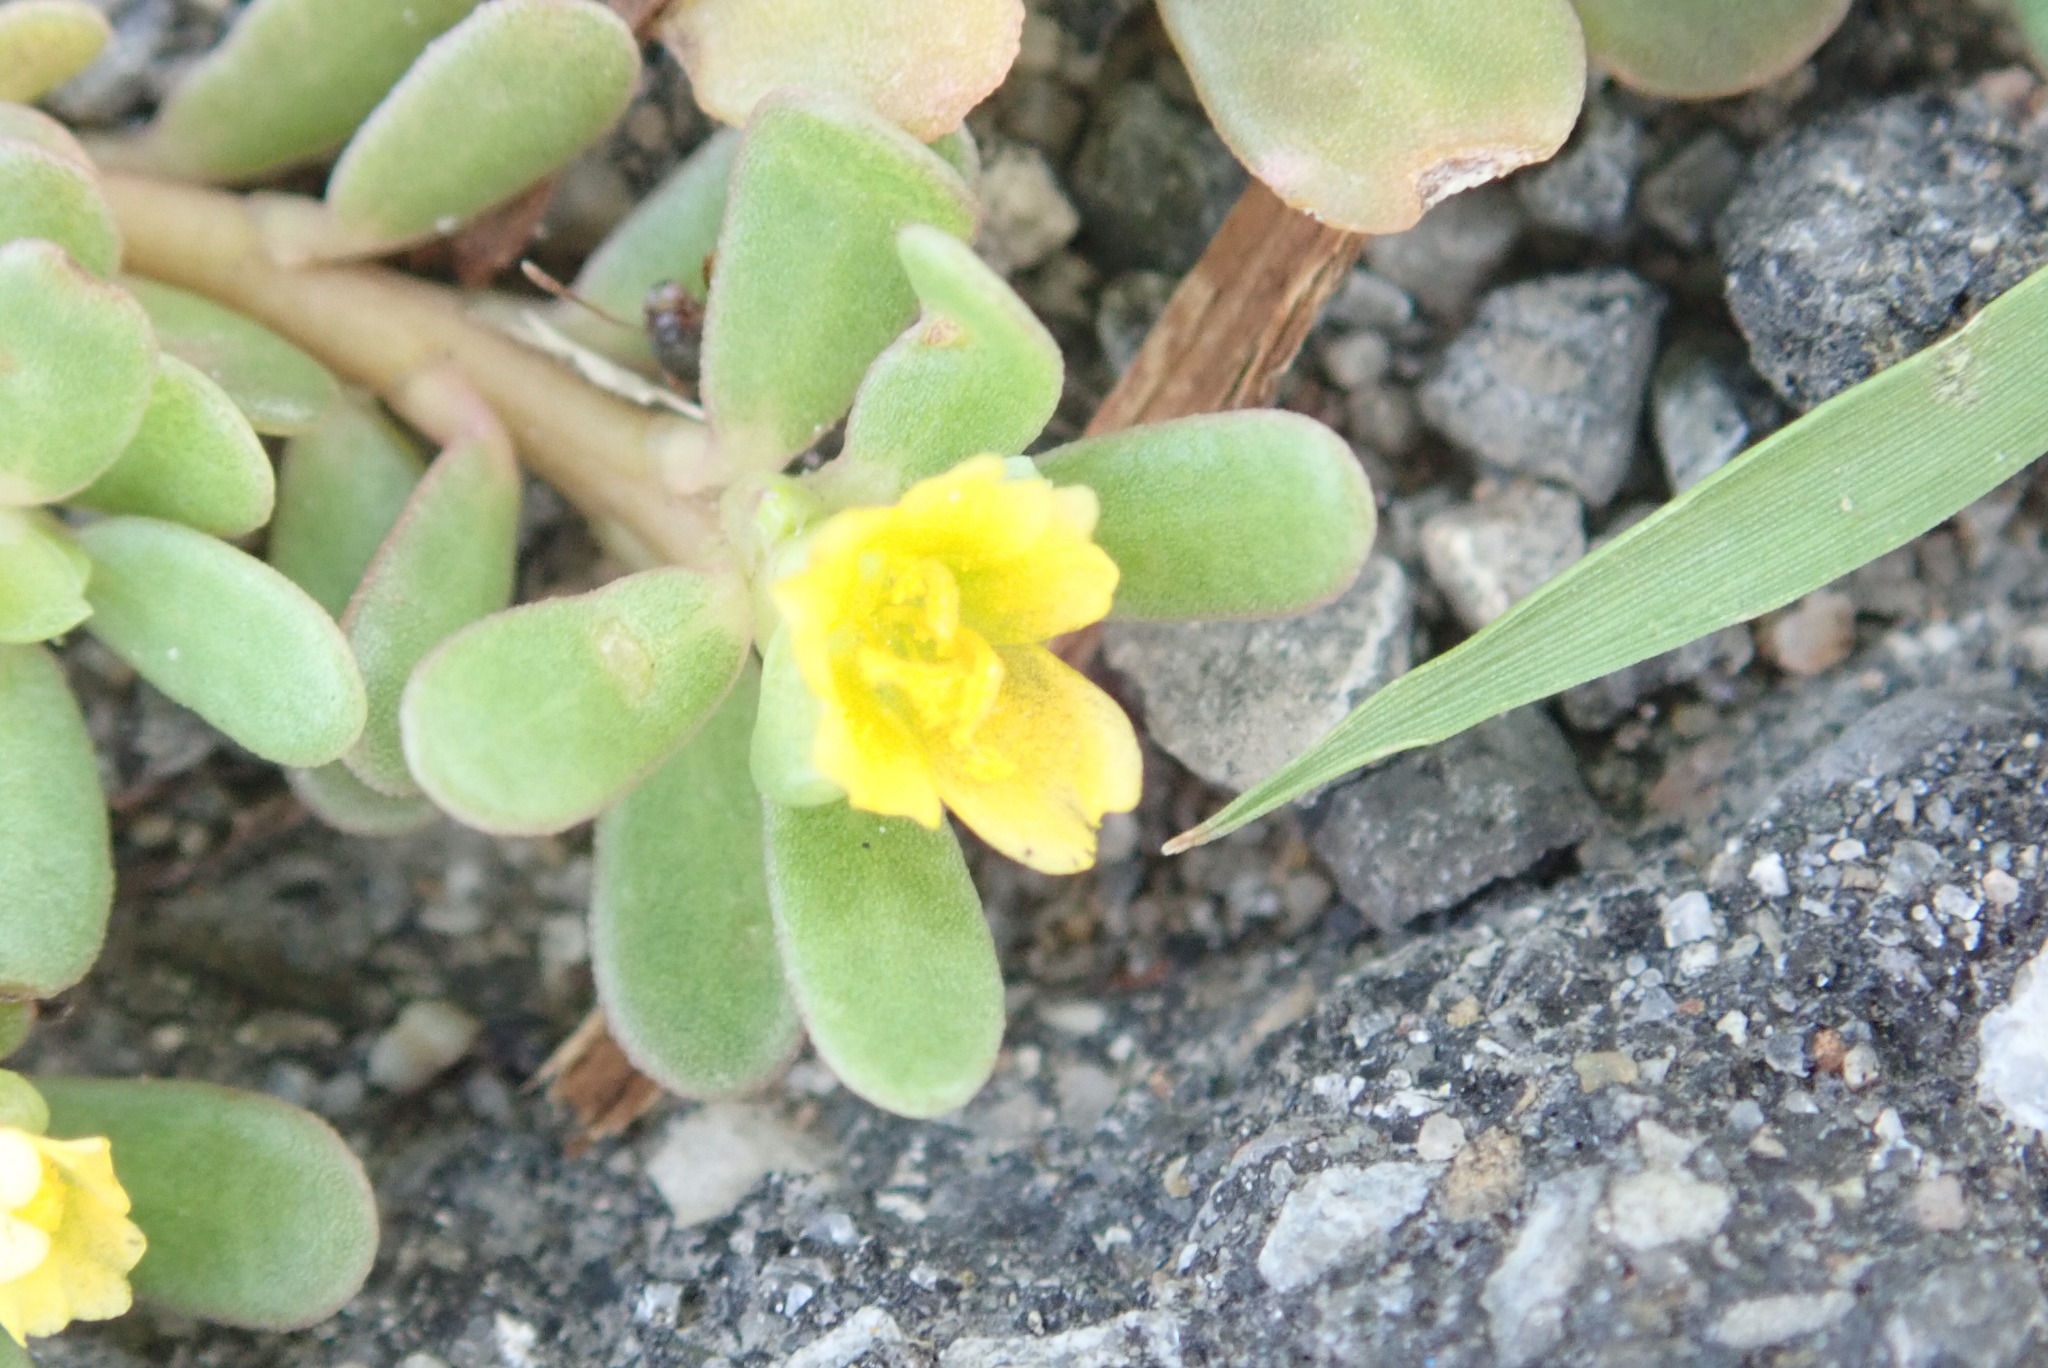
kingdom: Plantae
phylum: Tracheophyta
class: Magnoliopsida
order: Caryophyllales
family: Portulacaceae
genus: Portulaca
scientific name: Portulaca oleracea
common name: Common purslane
